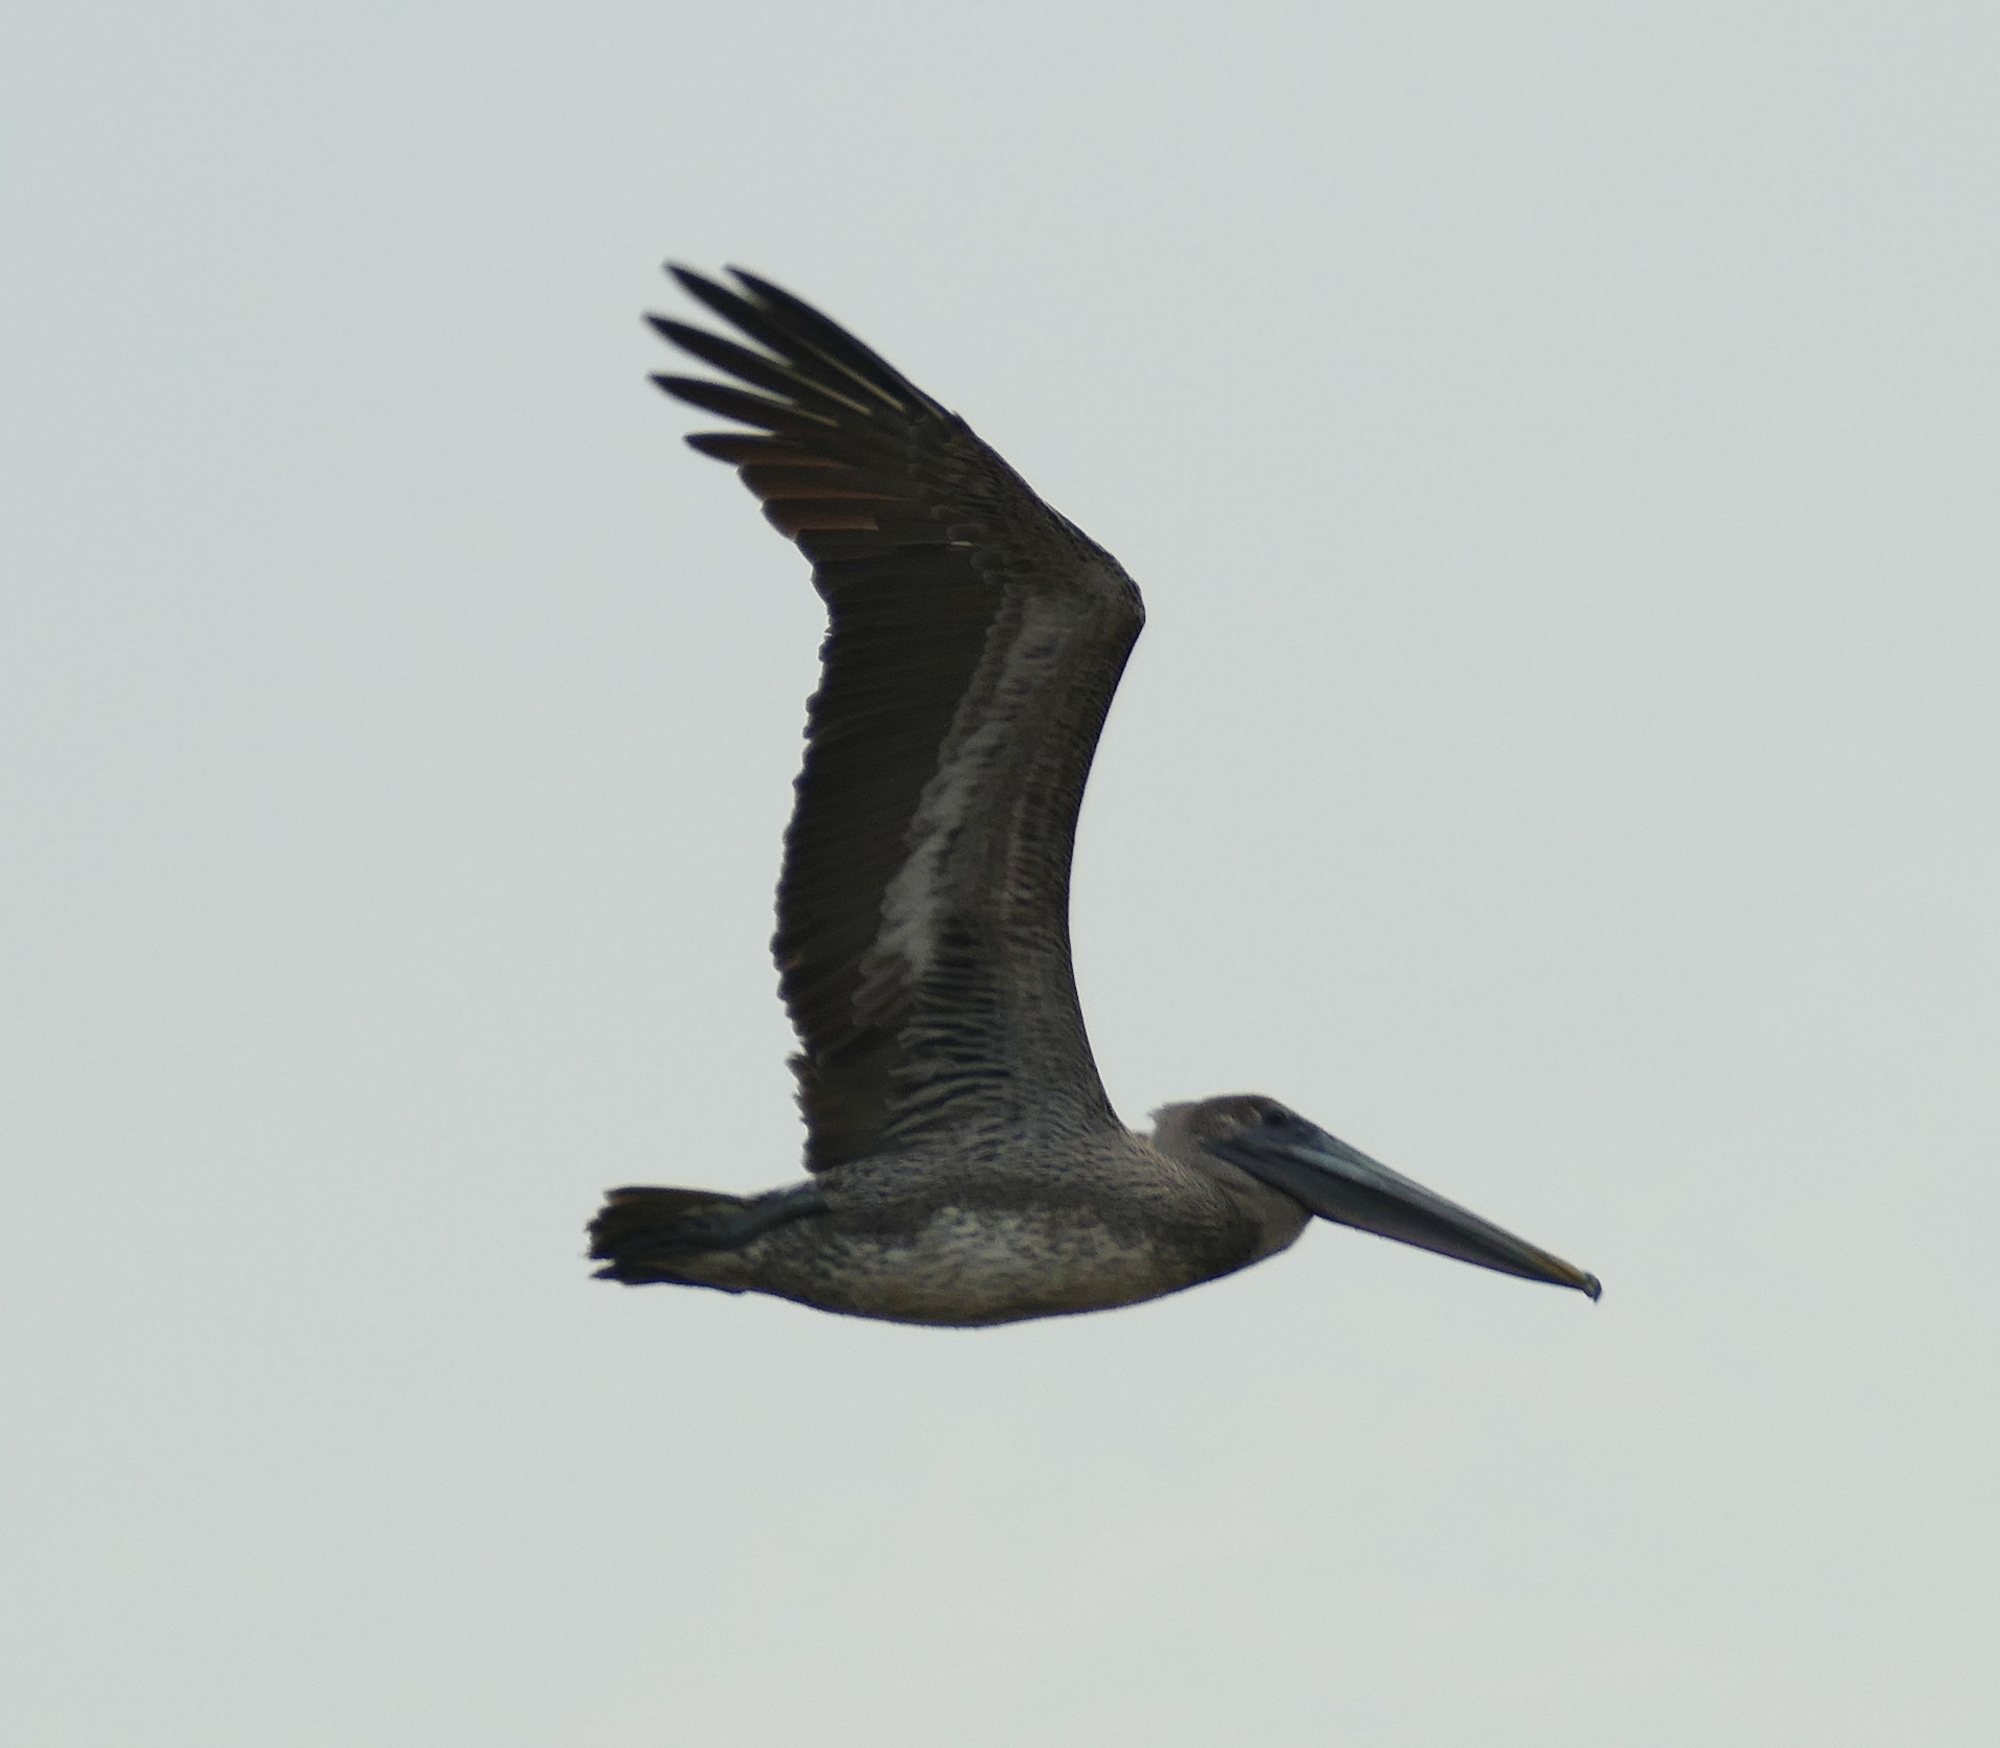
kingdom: Animalia
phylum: Chordata
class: Aves
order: Pelecaniformes
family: Pelecanidae
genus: Pelecanus
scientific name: Pelecanus occidentalis
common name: Brown pelican
